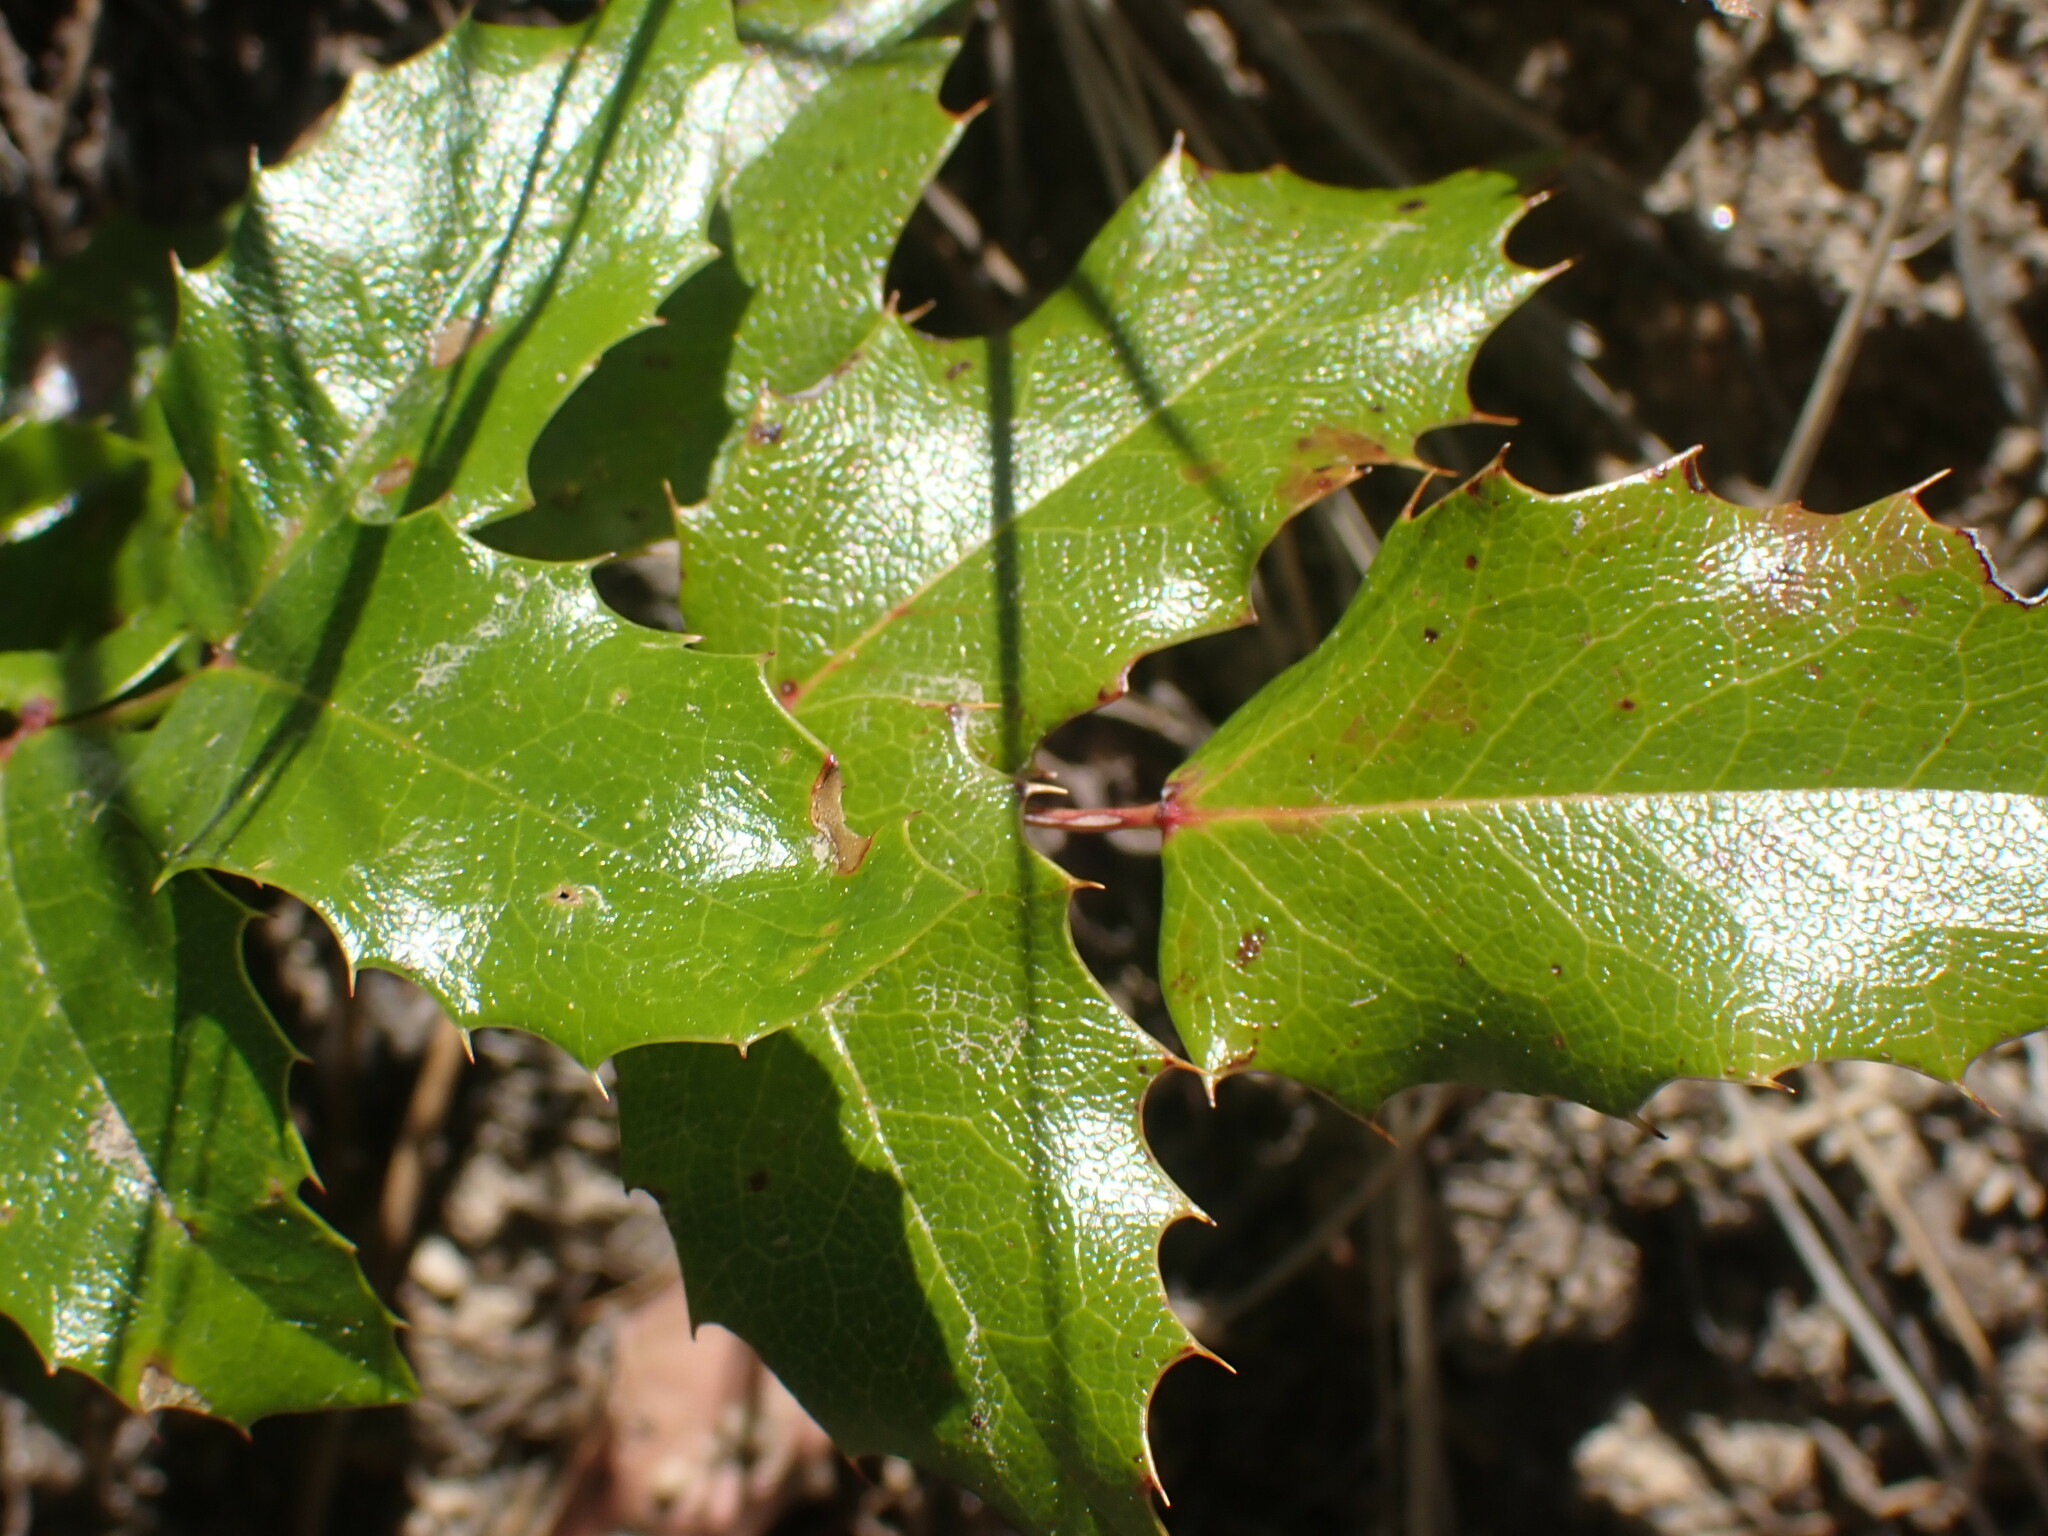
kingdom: Plantae
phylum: Tracheophyta
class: Magnoliopsida
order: Ranunculales
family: Berberidaceae
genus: Mahonia
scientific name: Mahonia aquifolium
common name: Oregon-grape
